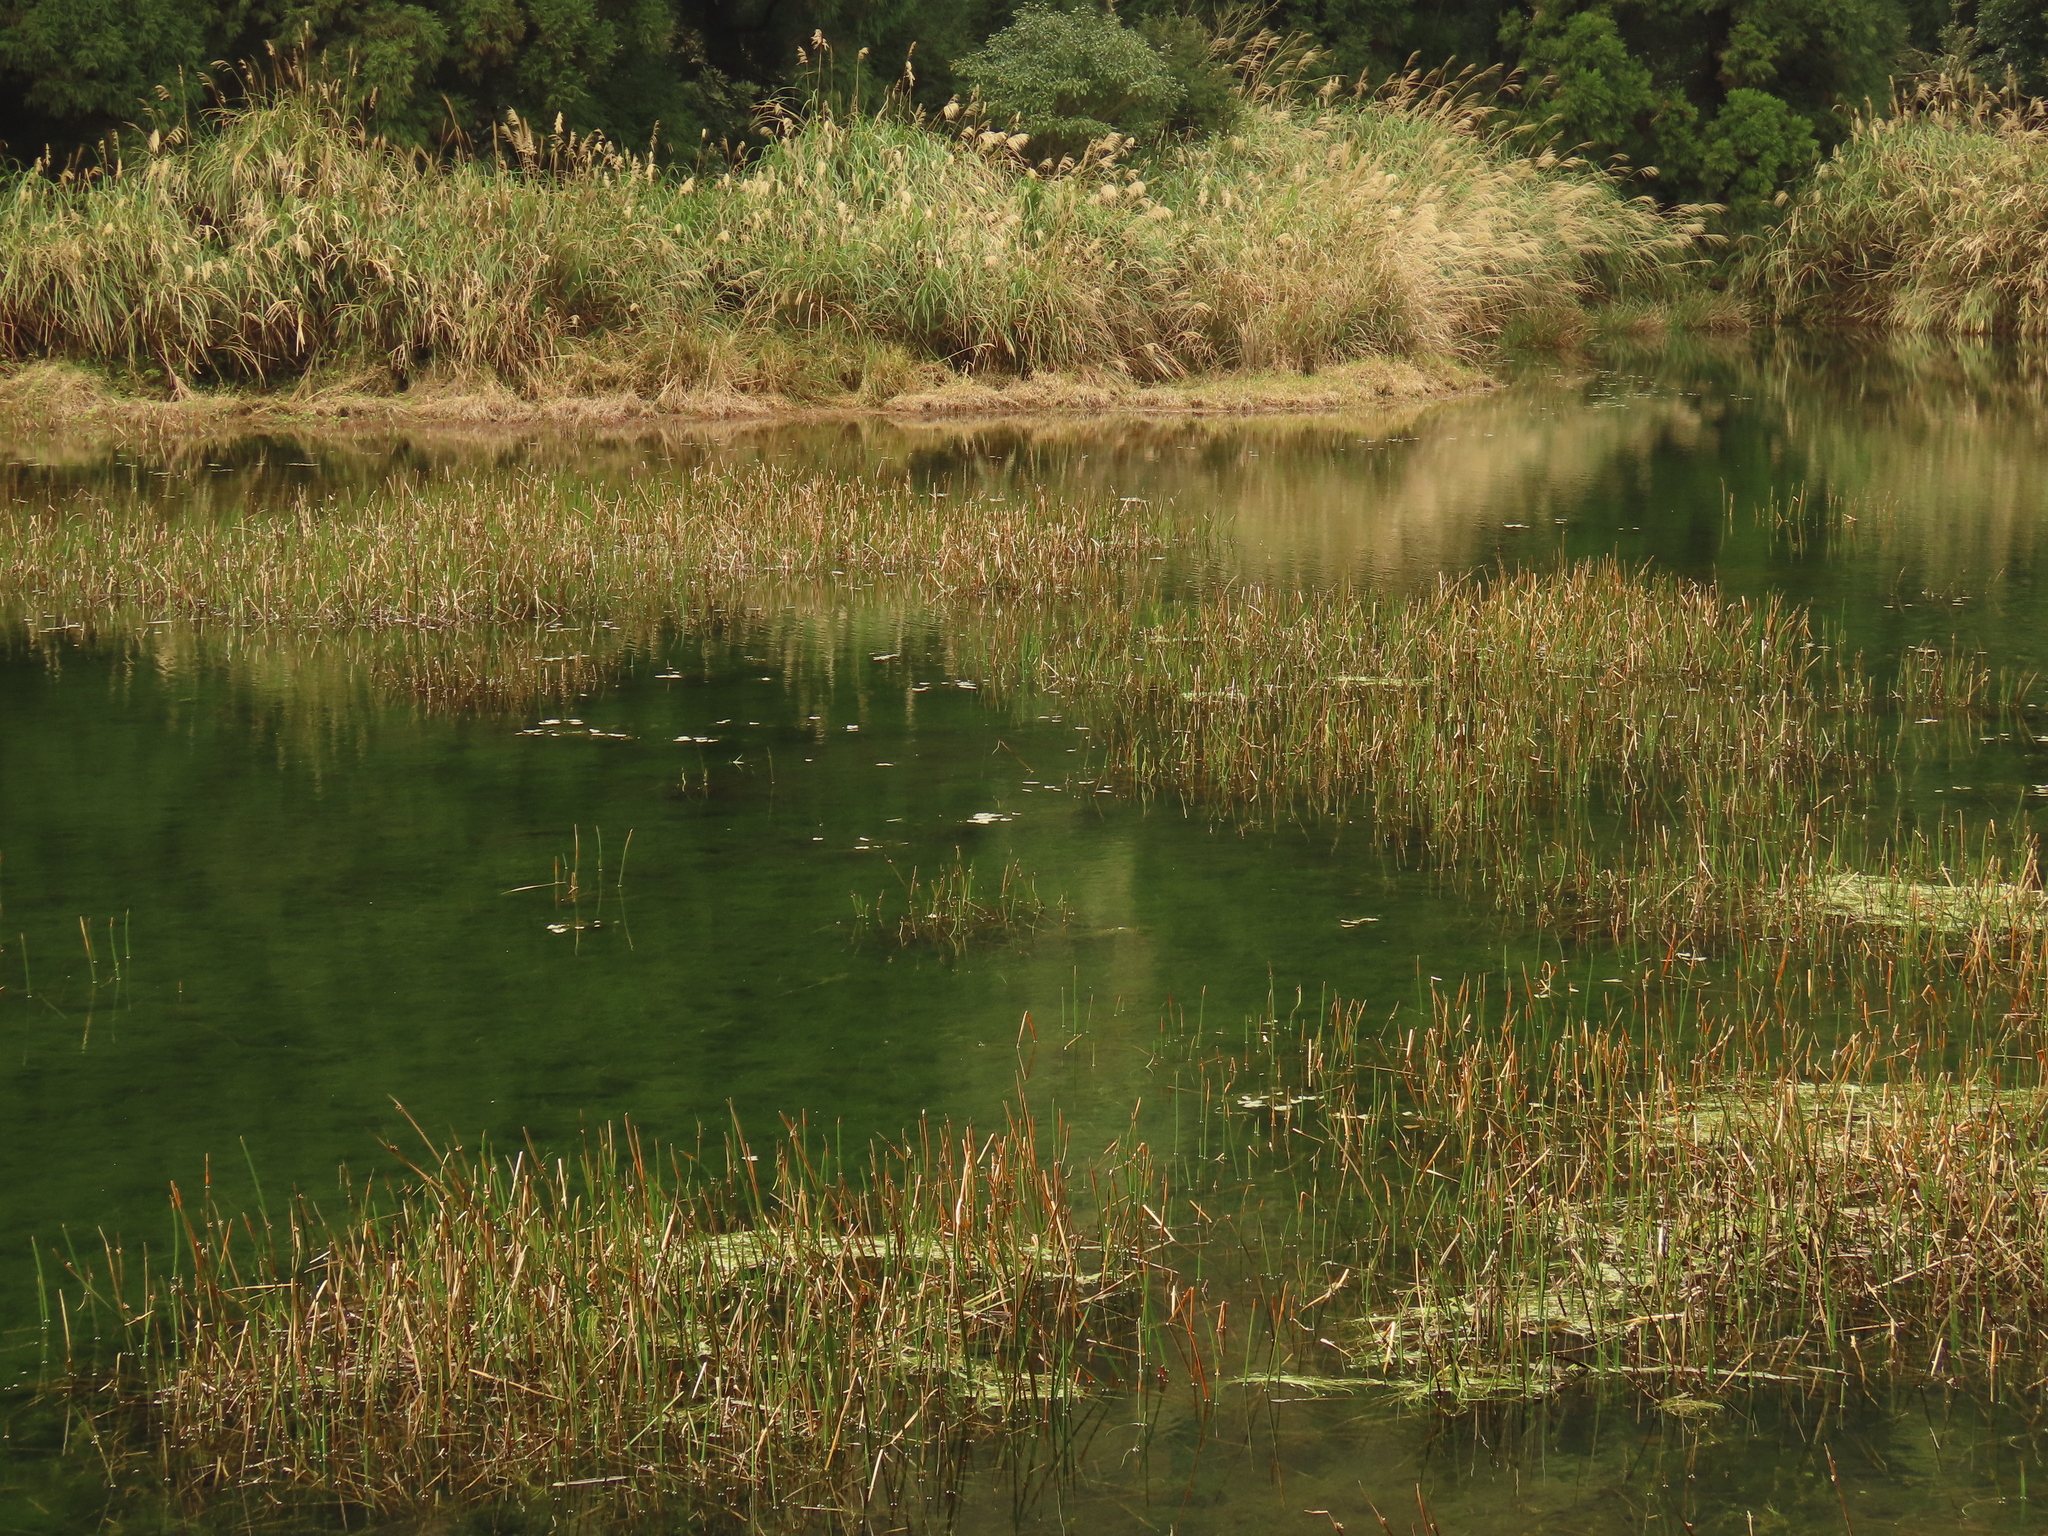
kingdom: Plantae
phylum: Tracheophyta
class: Magnoliopsida
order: Asterales
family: Menyanthaceae
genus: Nymphoides
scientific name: Nymphoides coreana
